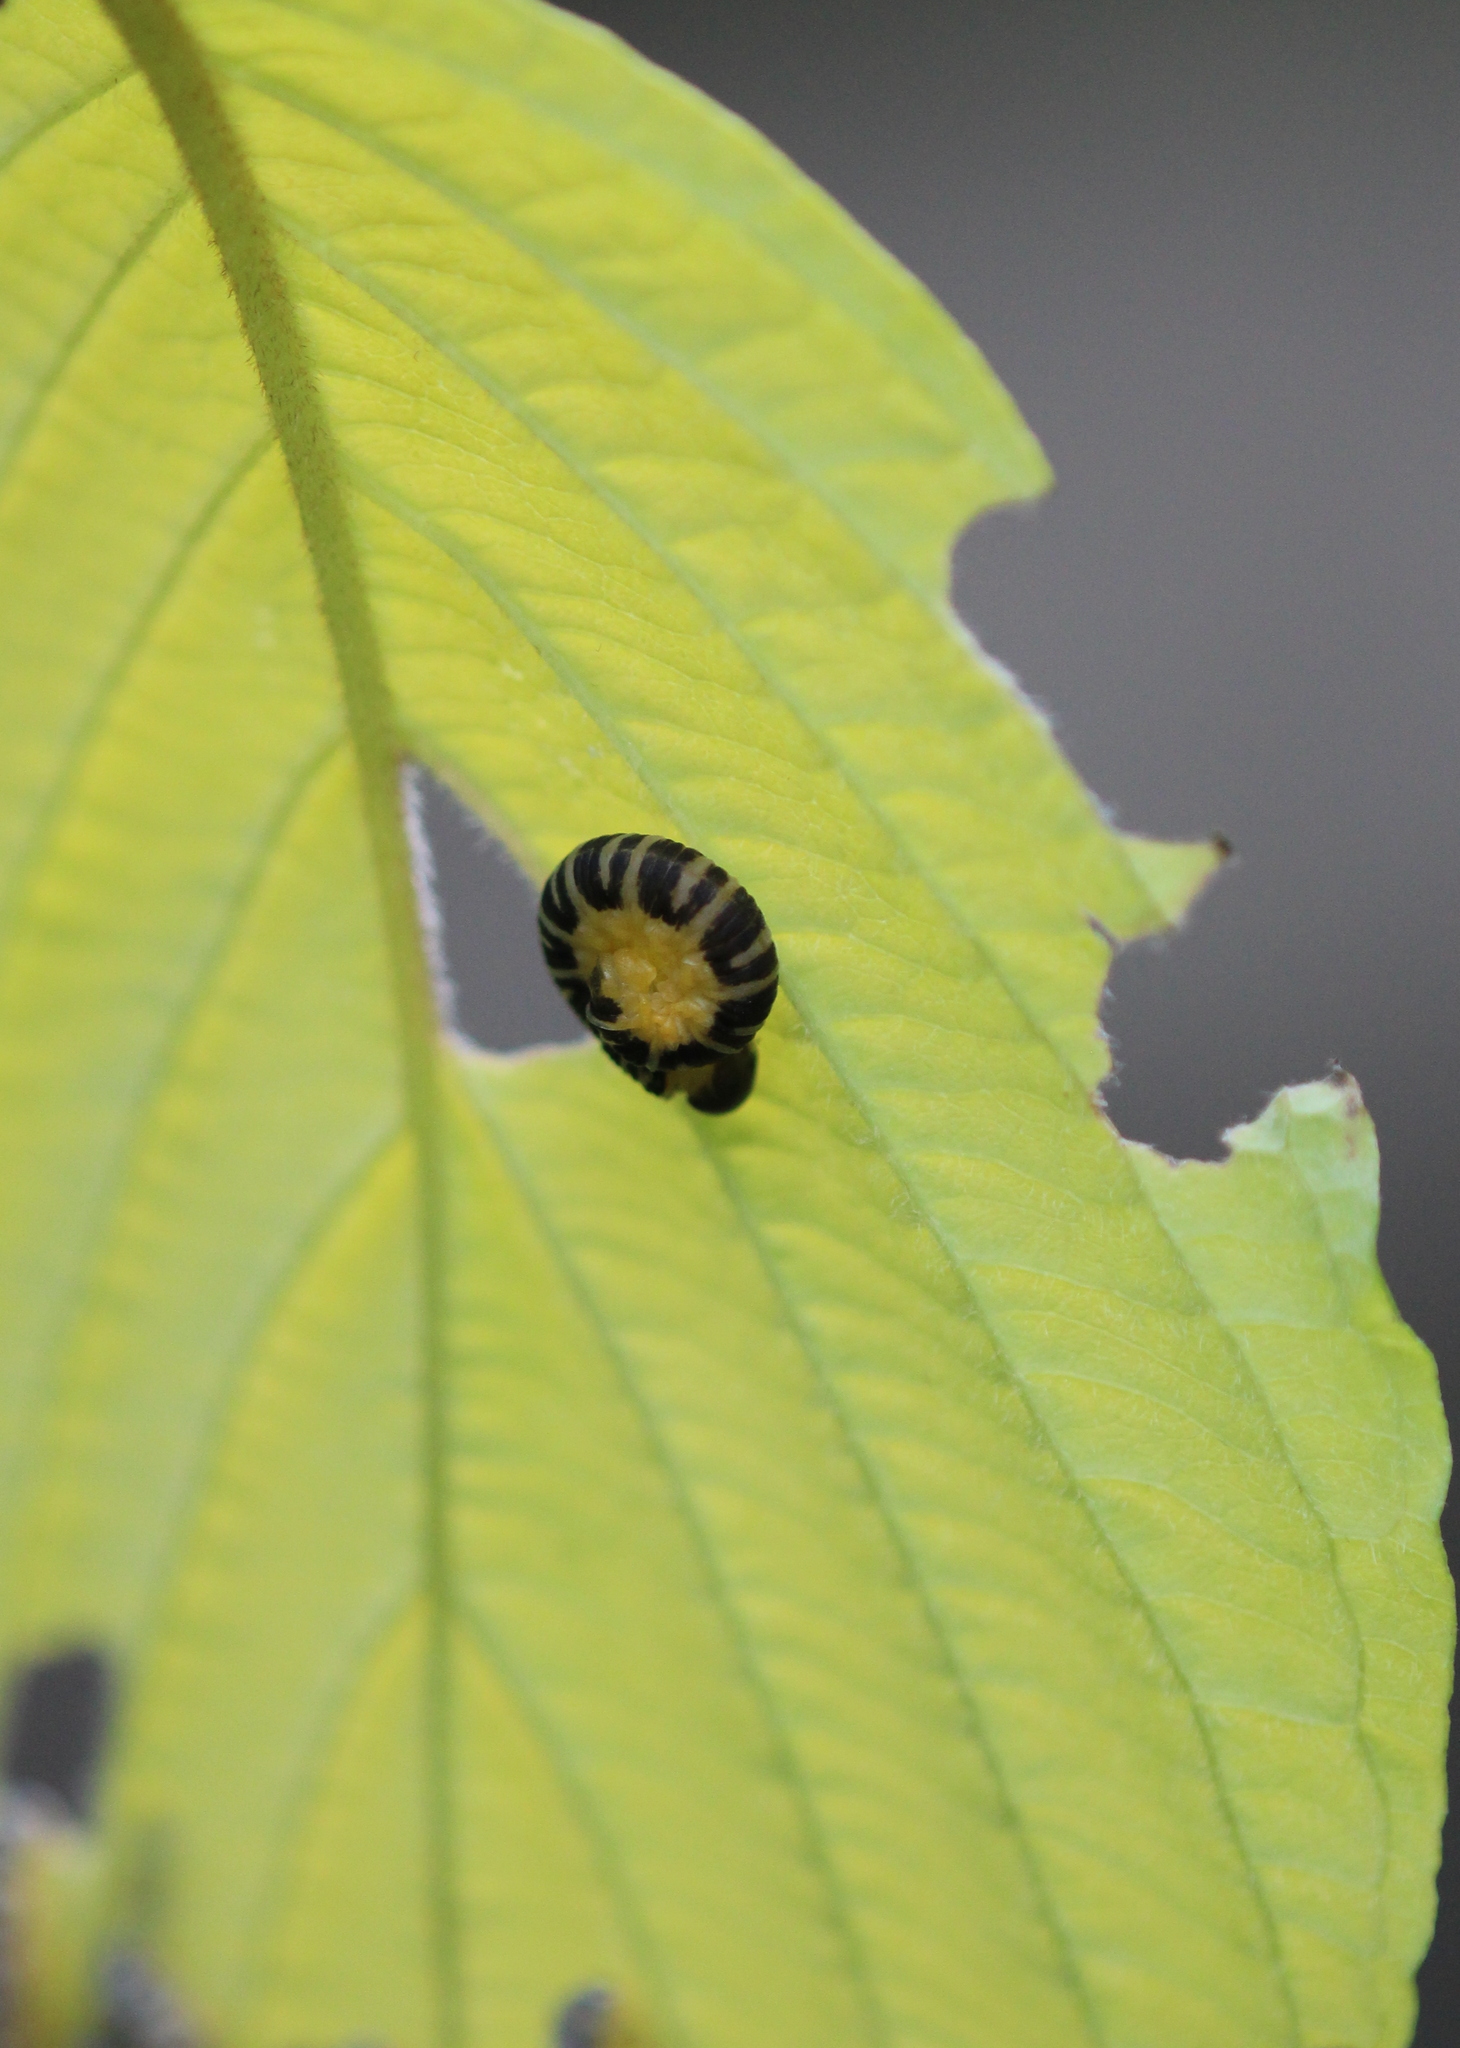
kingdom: Animalia
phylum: Arthropoda
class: Insecta
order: Hymenoptera
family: Tenthredinidae
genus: Macremphytus
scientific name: Macremphytus
